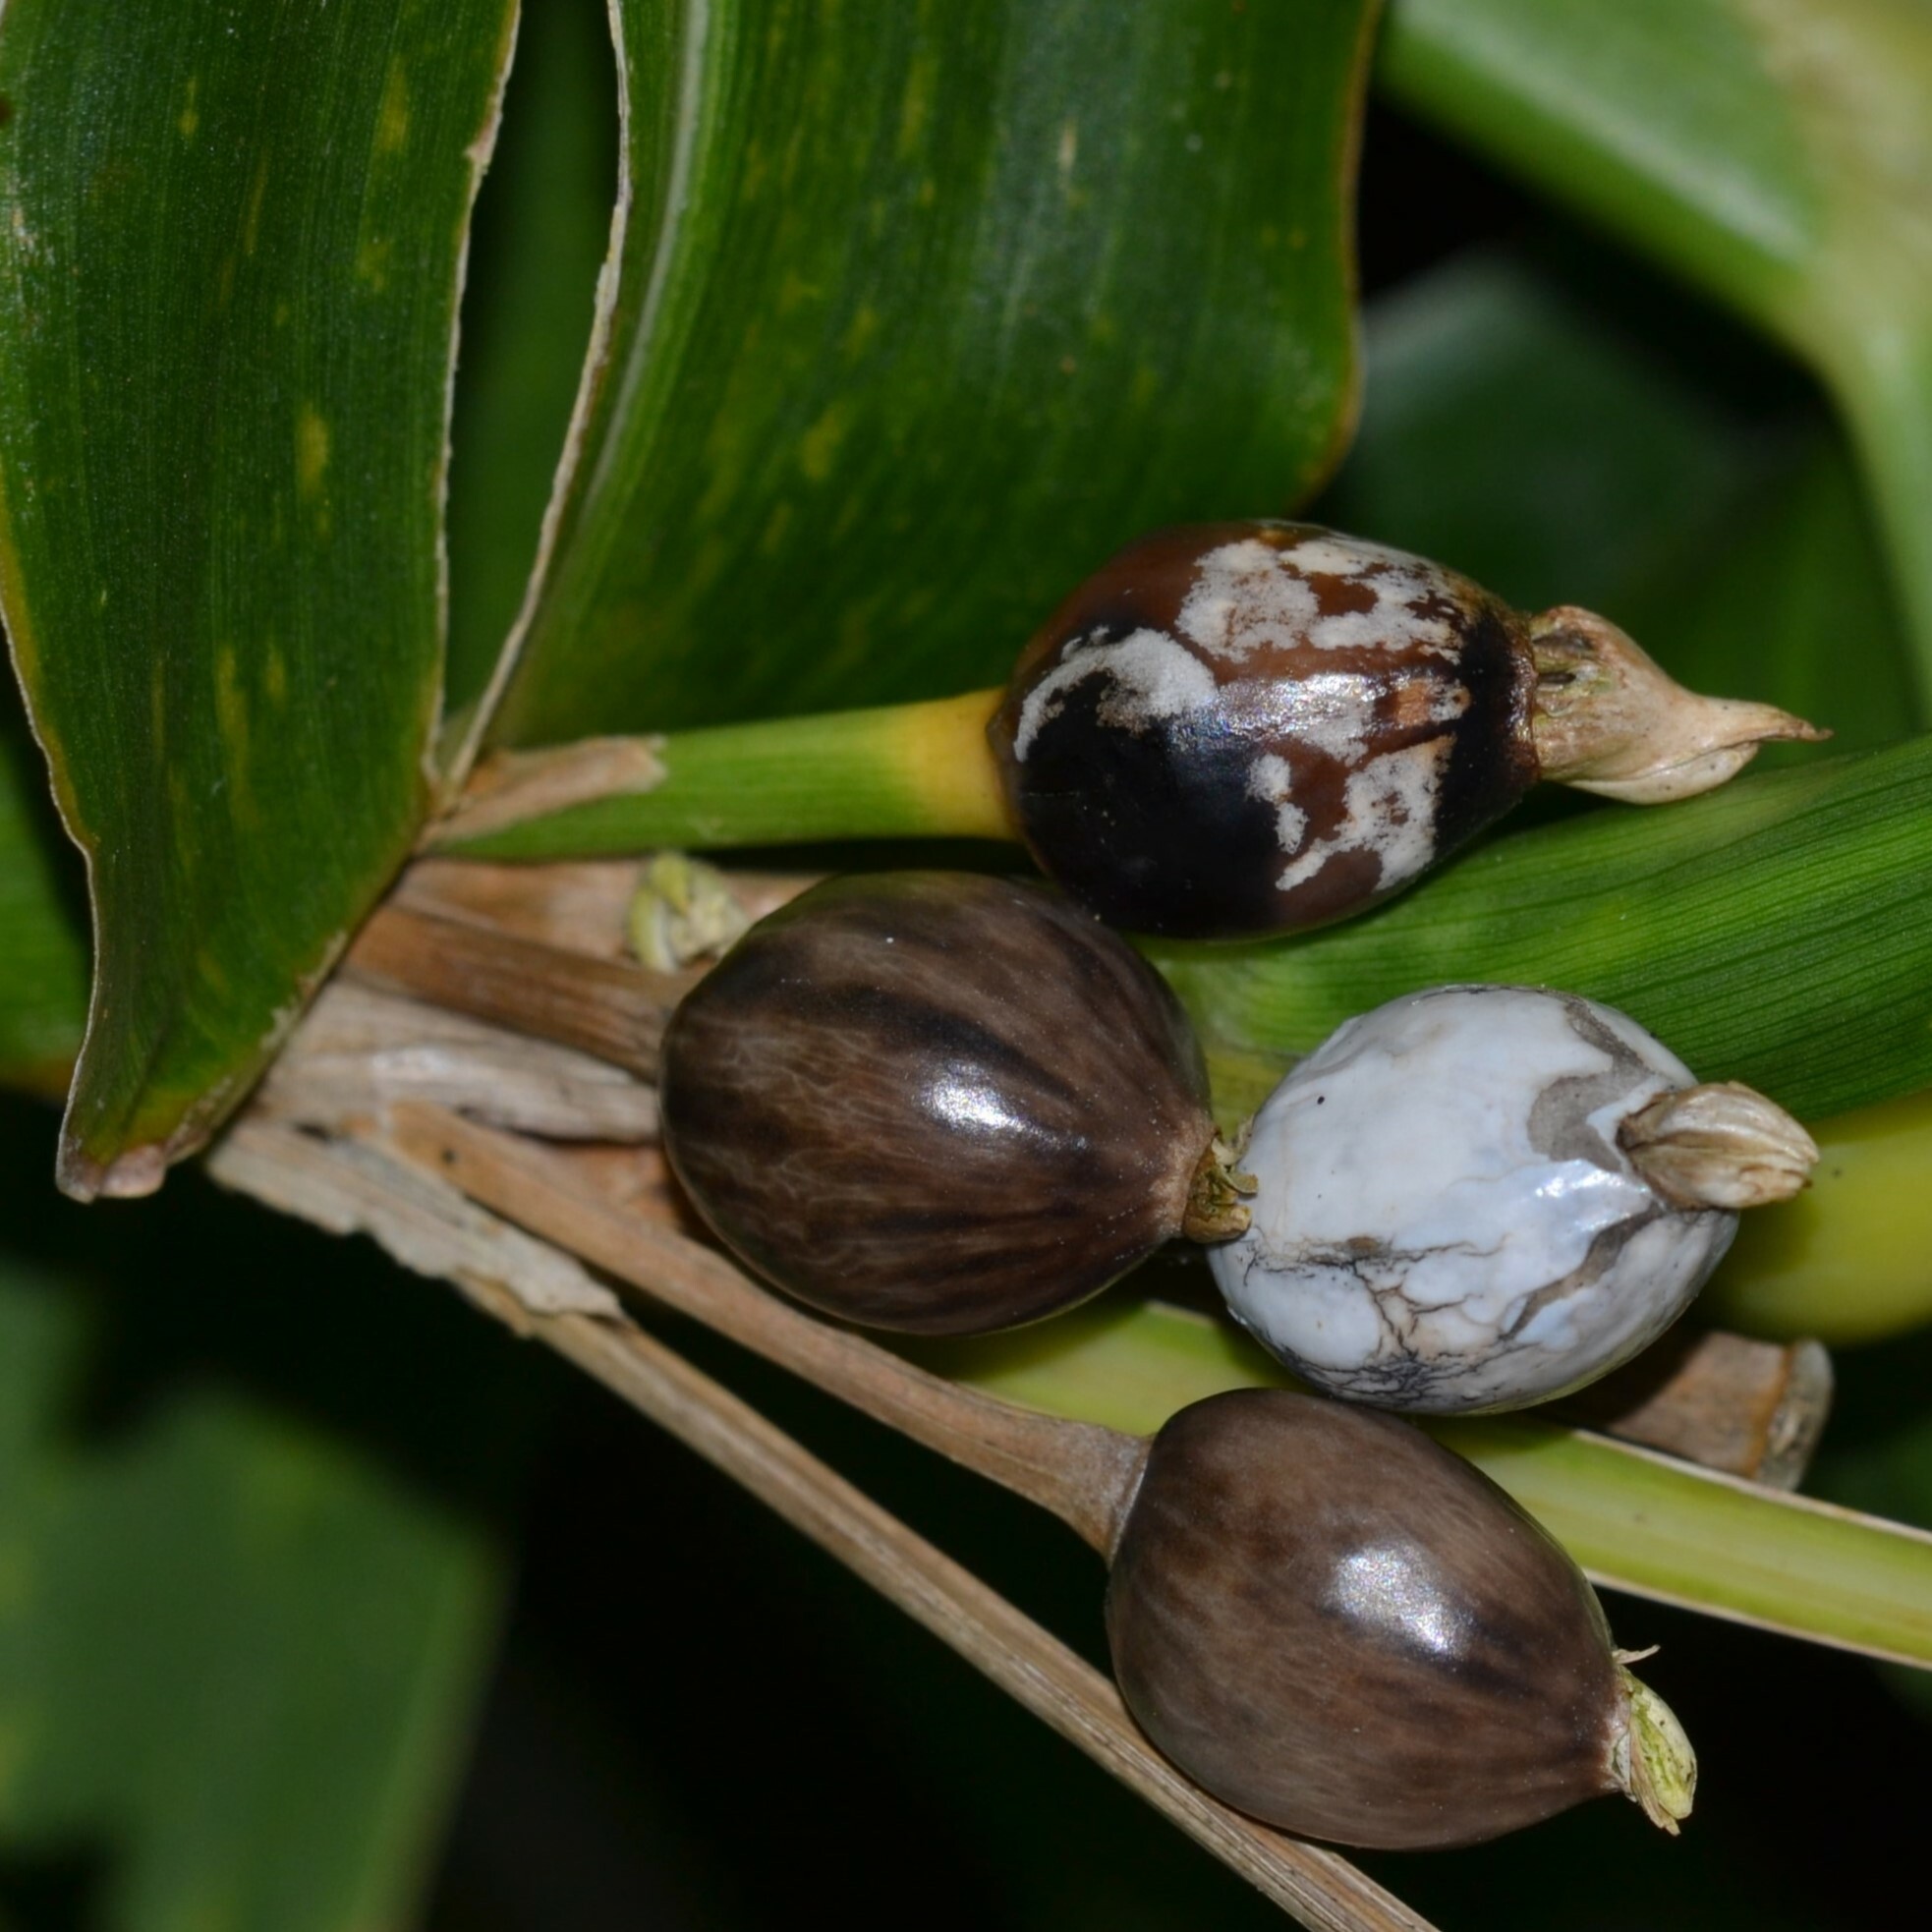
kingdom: Plantae
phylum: Tracheophyta
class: Liliopsida
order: Poales
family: Poaceae
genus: Coix
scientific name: Coix lacryma-jobi
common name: Job's tears
